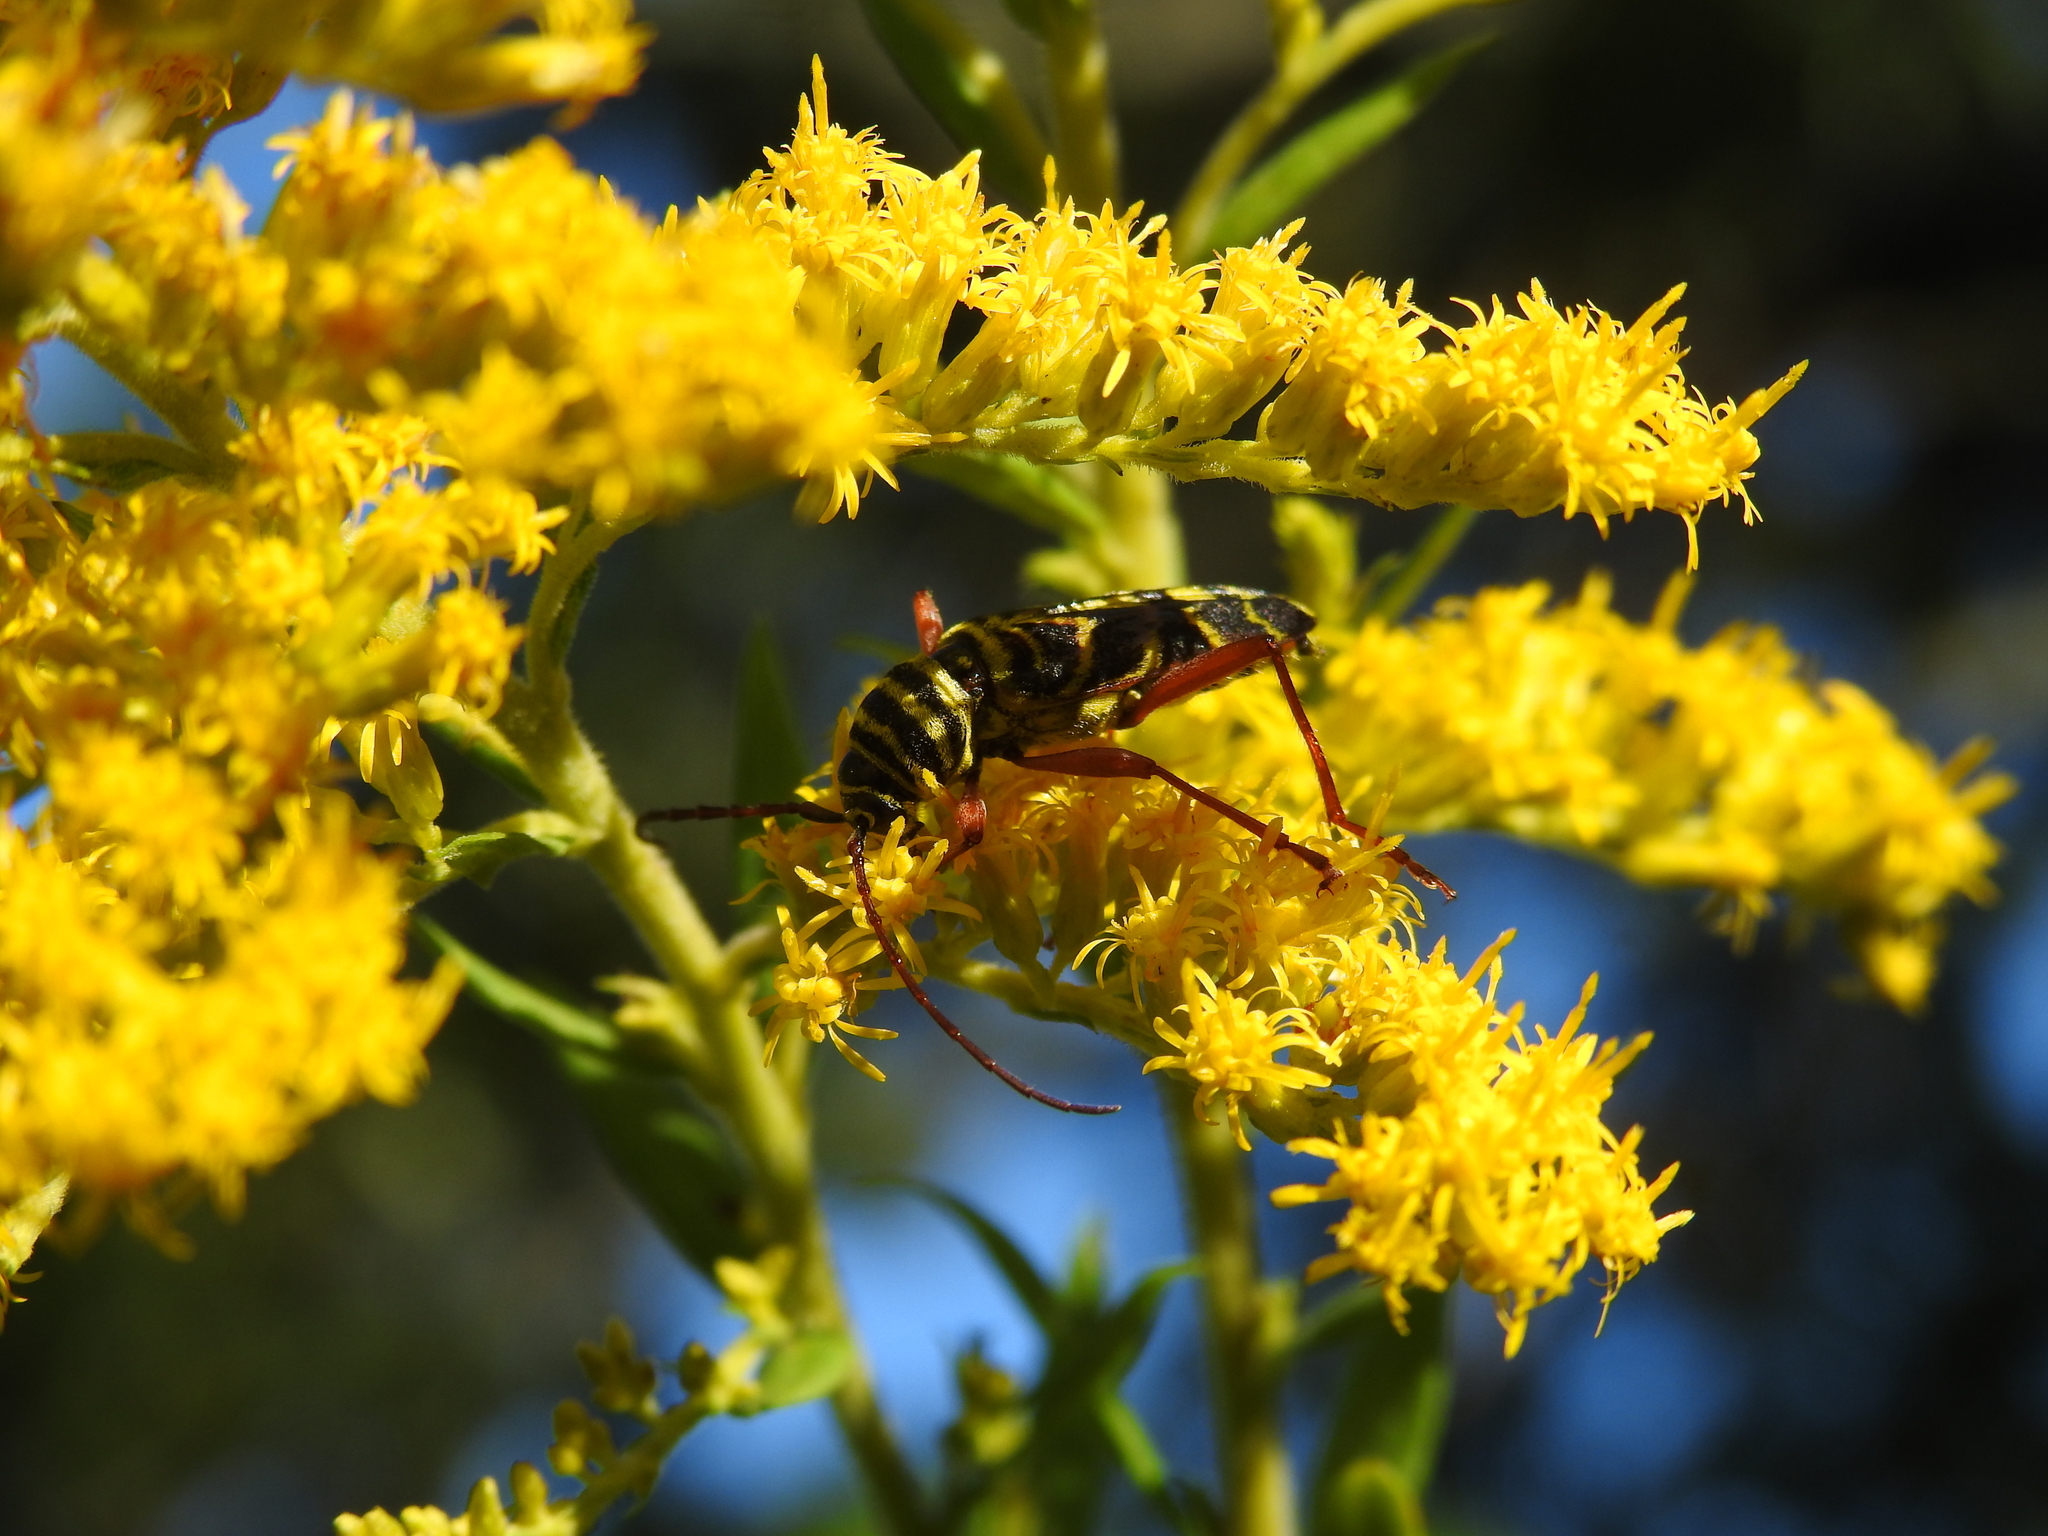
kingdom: Animalia
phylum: Arthropoda
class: Insecta
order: Coleoptera
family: Cerambycidae
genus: Megacyllene
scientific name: Megacyllene robiniae
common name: Locust borer
